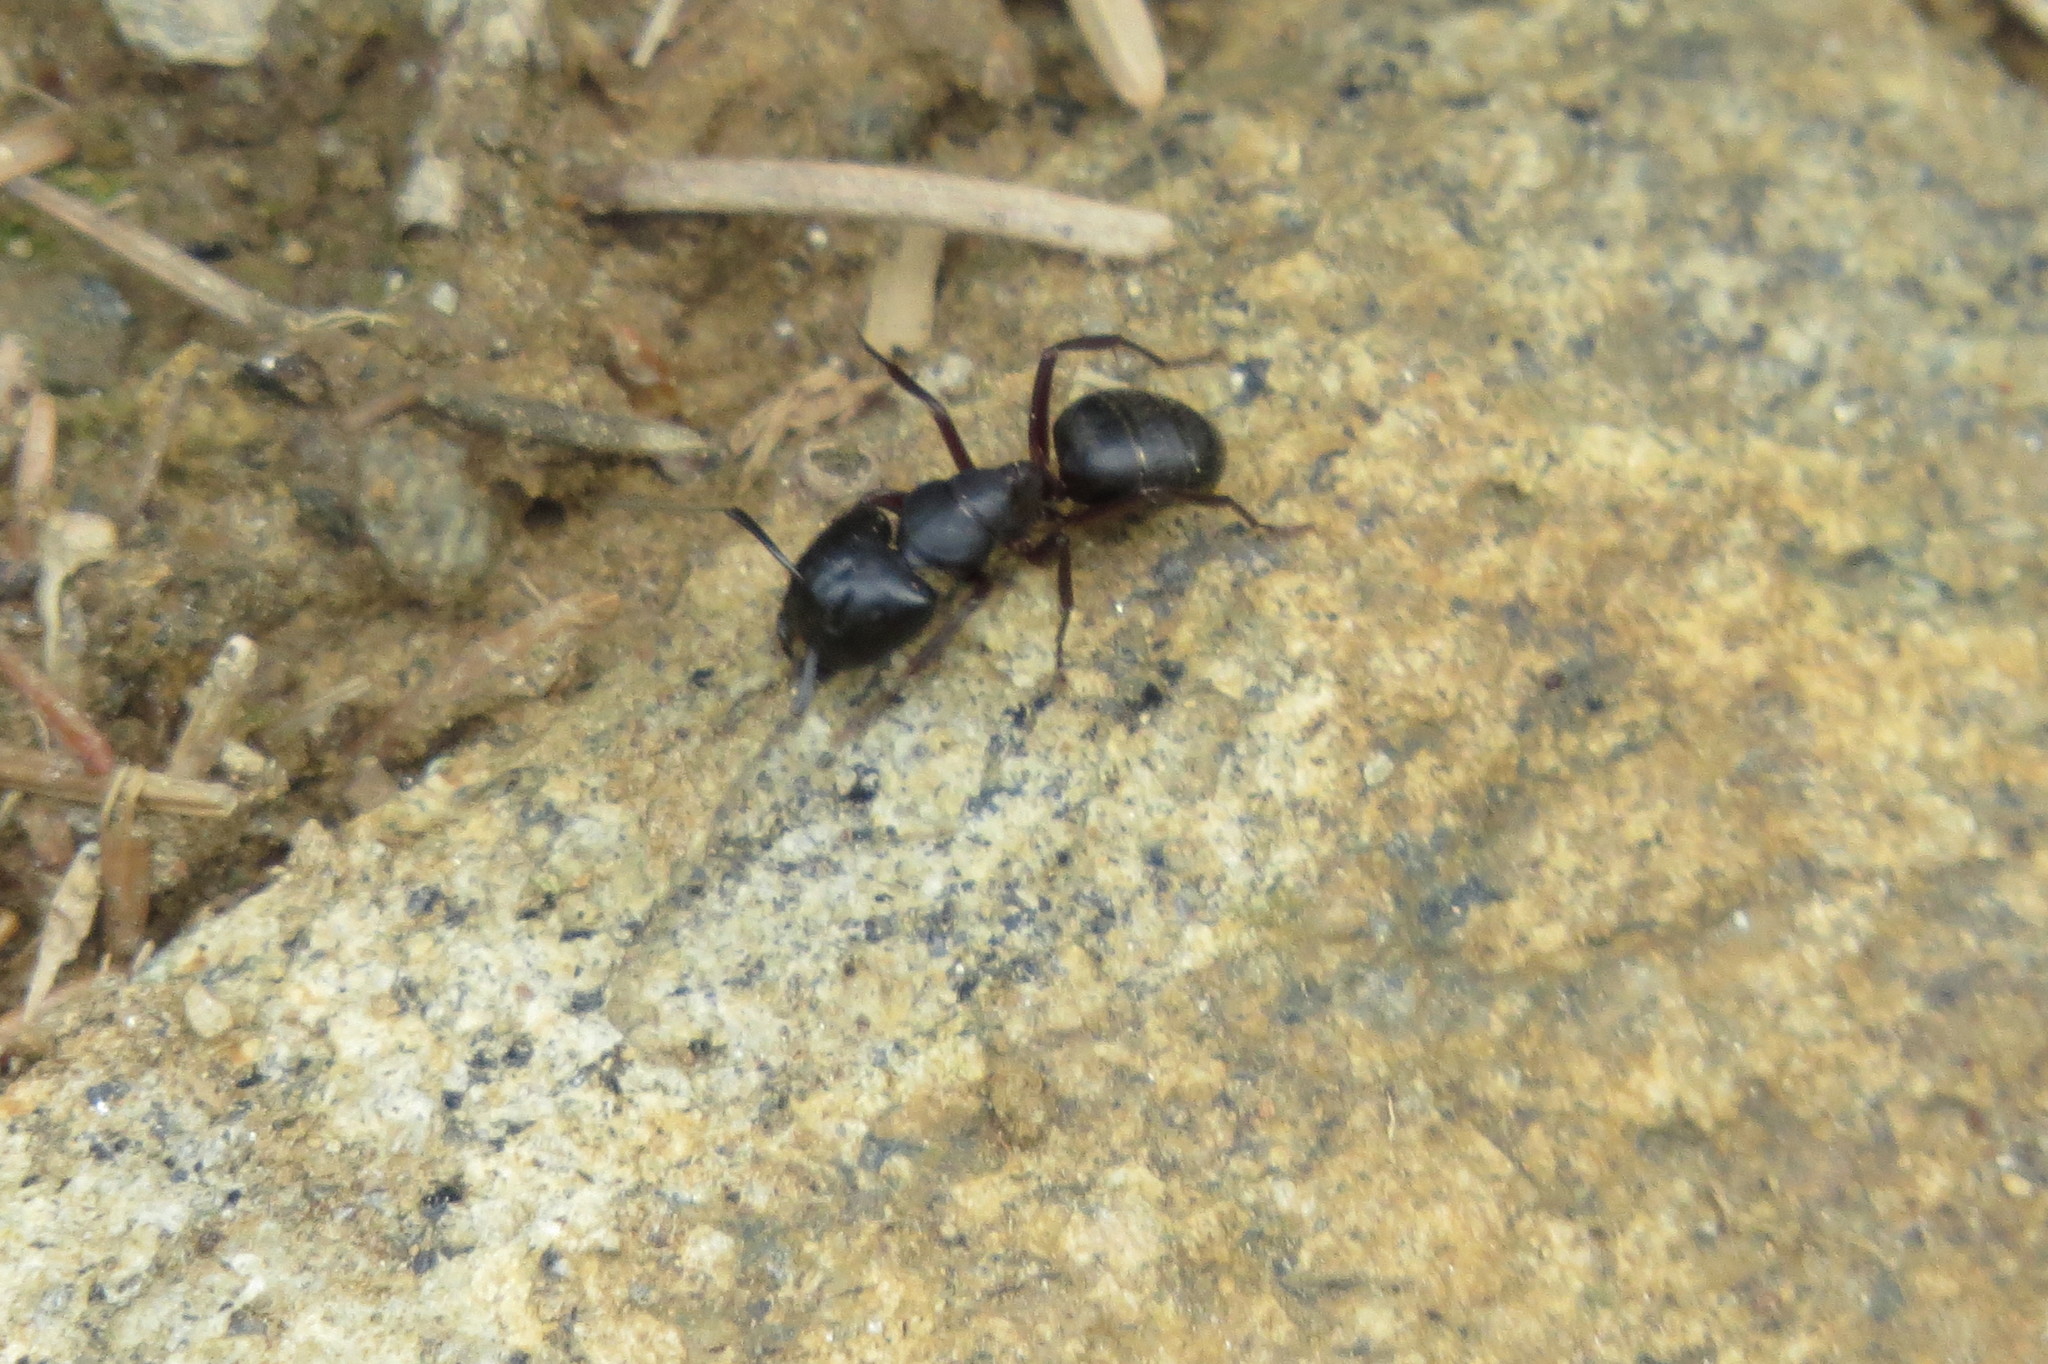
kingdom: Animalia
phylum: Arthropoda
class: Insecta
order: Hymenoptera
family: Formicidae
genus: Camponotus
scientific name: Camponotus herculeanus
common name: Hercules ant
